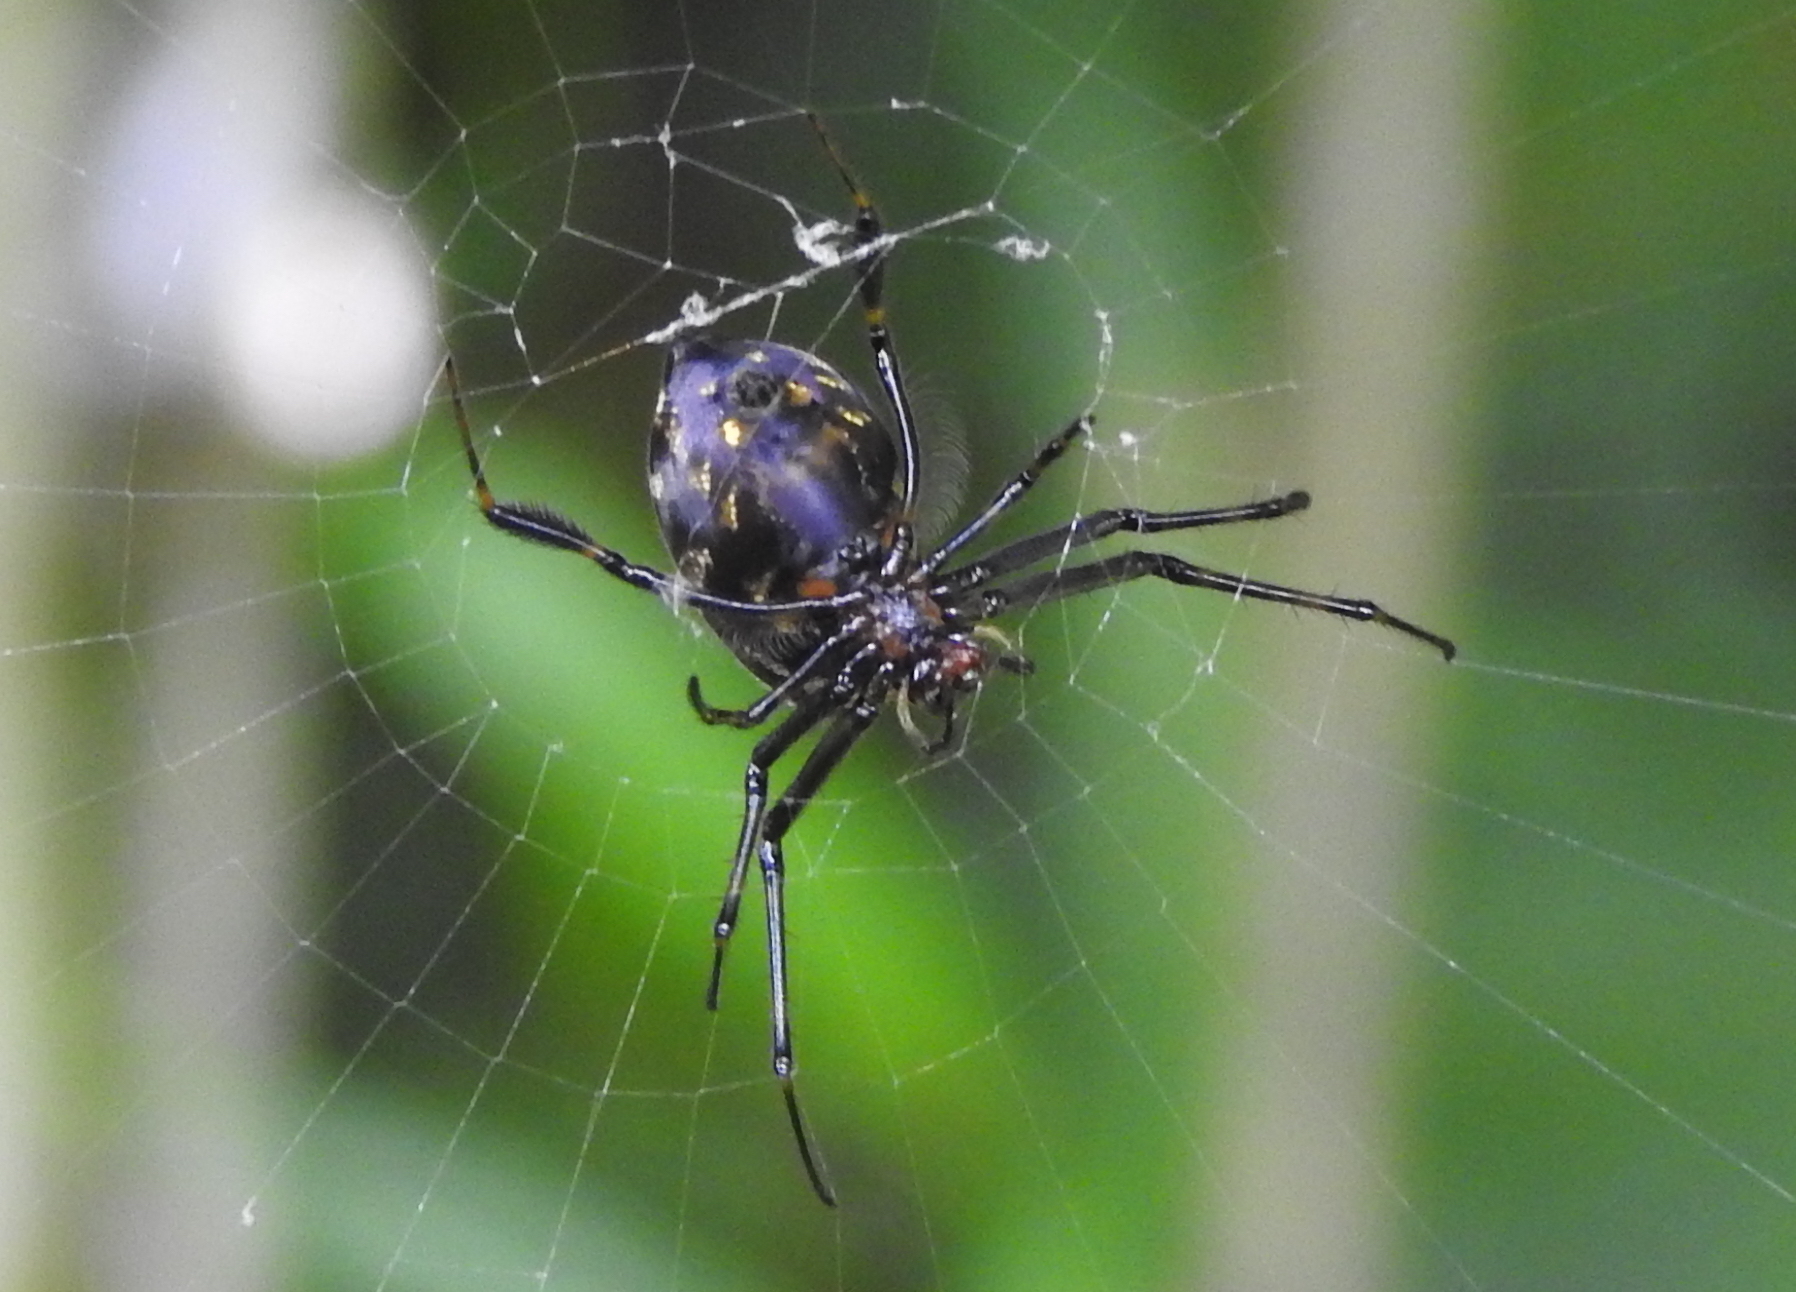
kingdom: Animalia
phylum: Arthropoda
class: Arachnida
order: Araneae
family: Tetragnathidae
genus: Leucauge
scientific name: Leucauge fastigata
